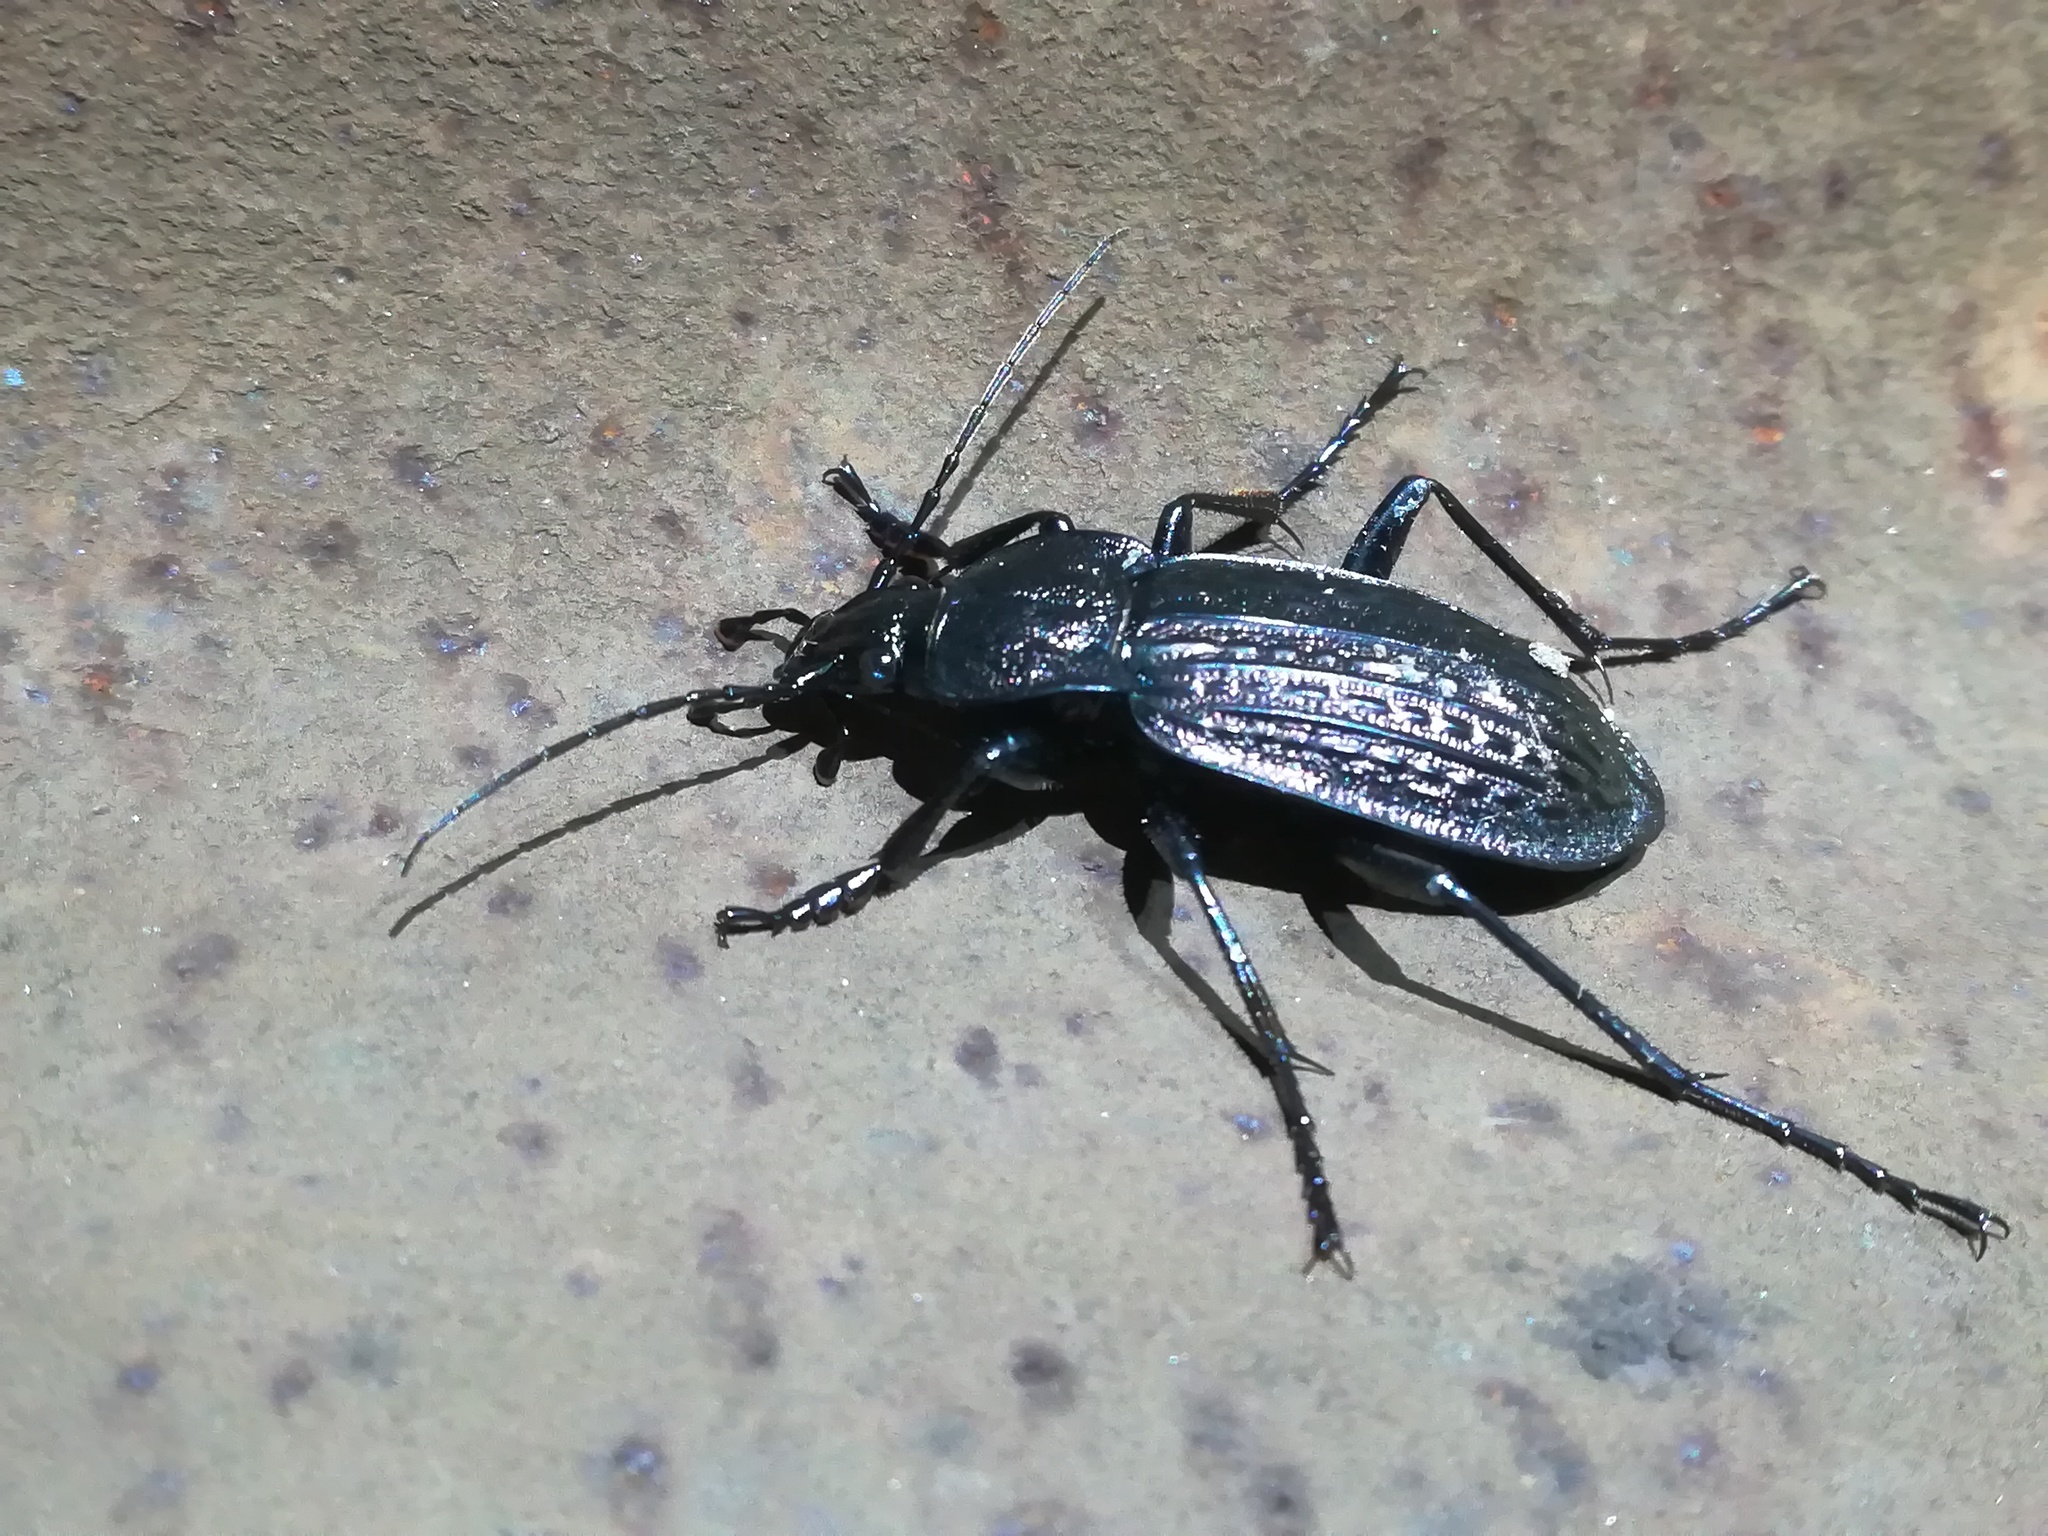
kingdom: Animalia
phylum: Arthropoda
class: Insecta
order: Coleoptera
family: Carabidae
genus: Carabus
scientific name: Carabus rugosus
